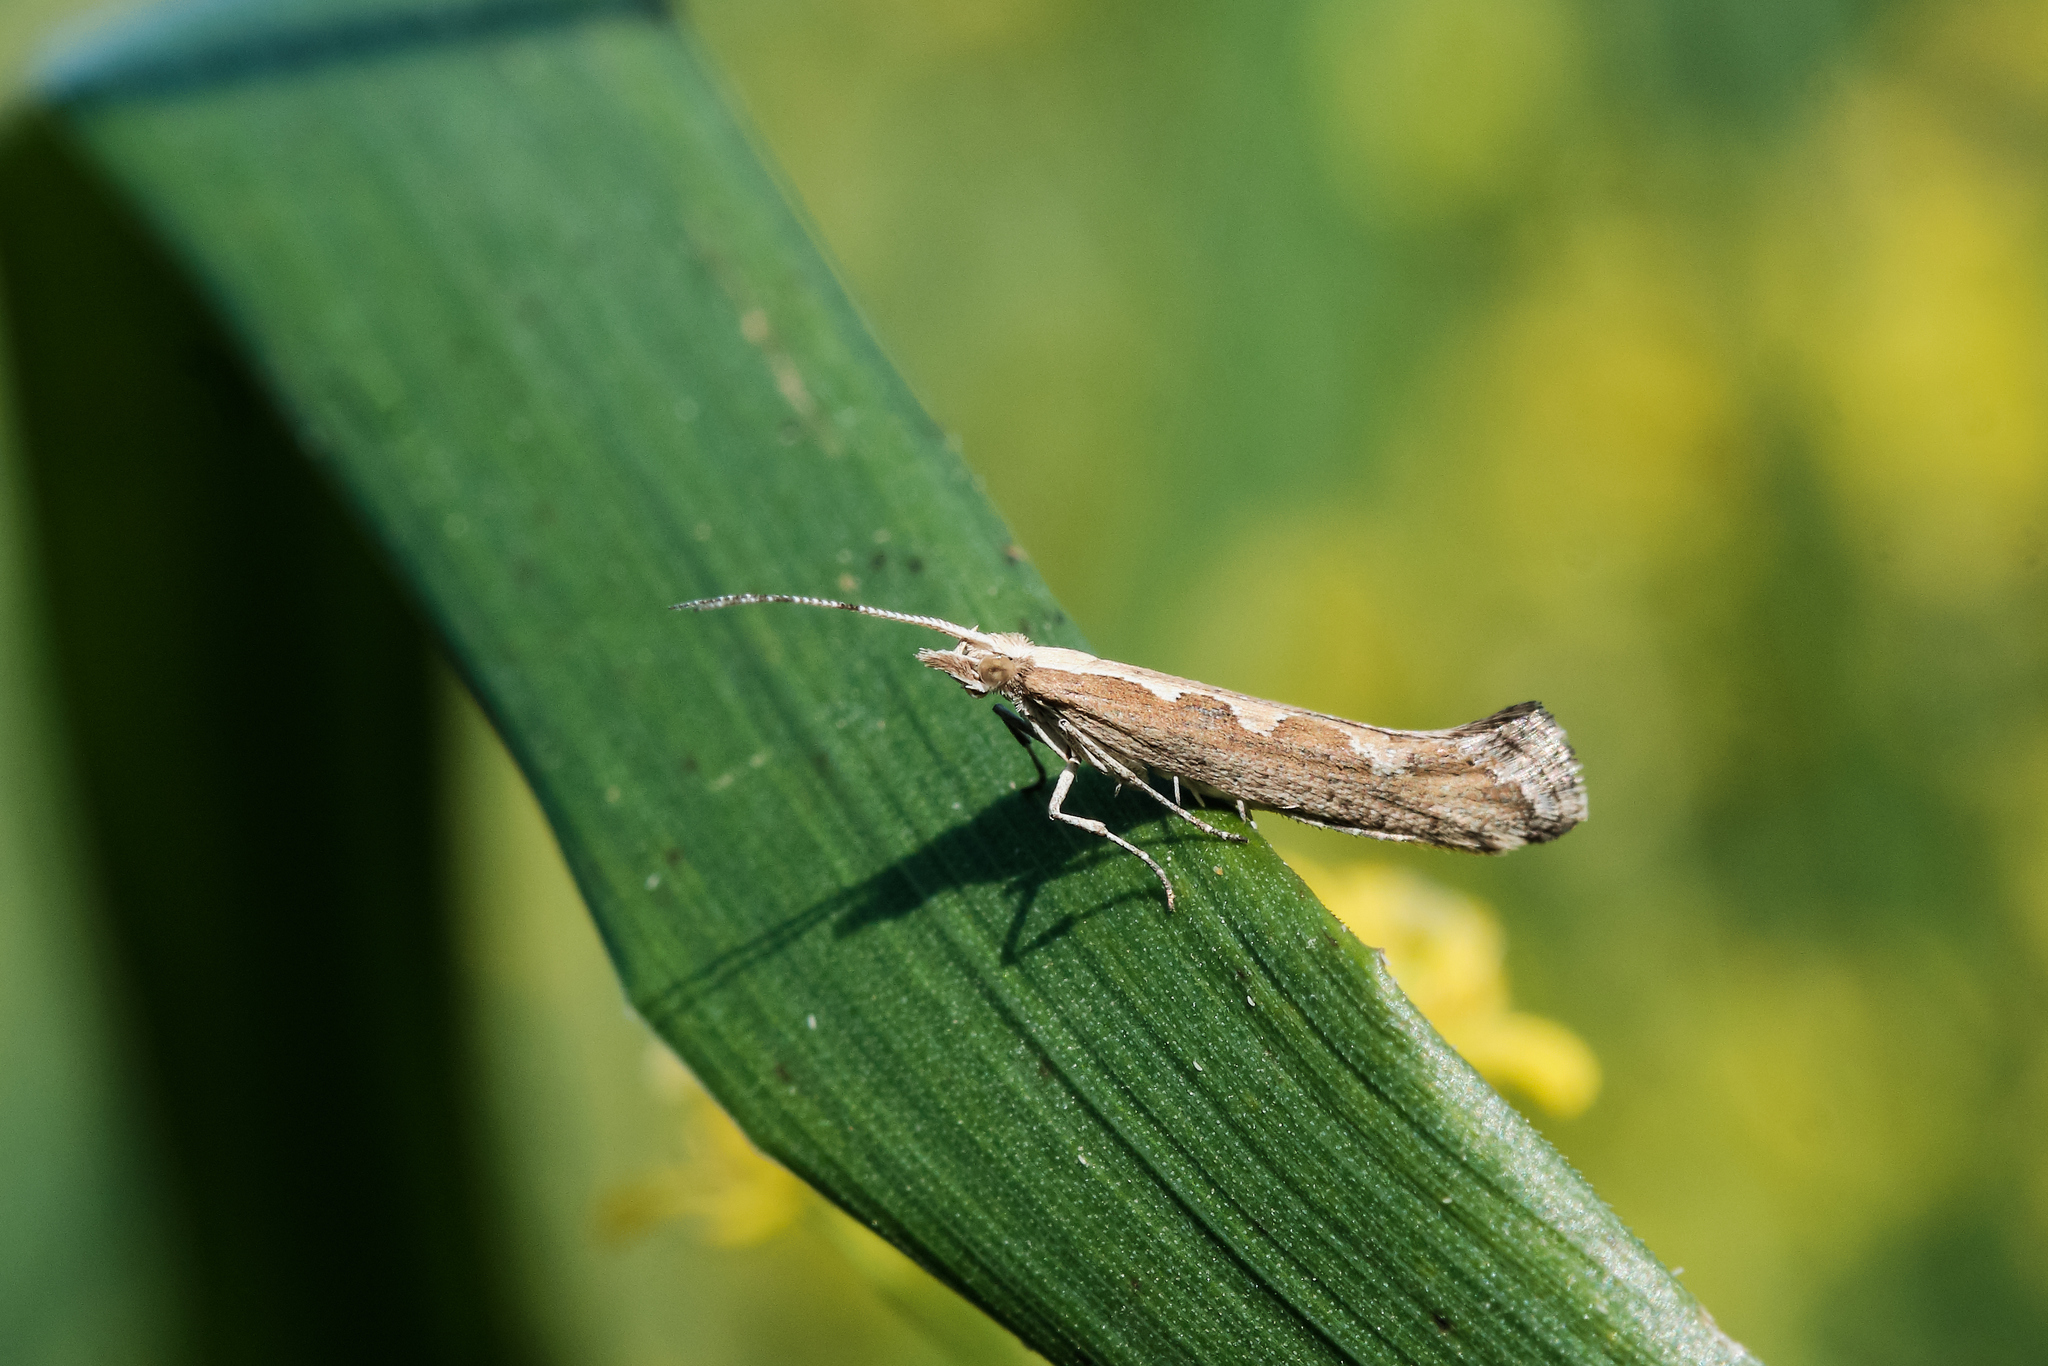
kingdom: Animalia
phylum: Arthropoda
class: Insecta
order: Lepidoptera
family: Plutellidae
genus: Plutella
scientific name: Plutella xylostella
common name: Diamond-back moth
